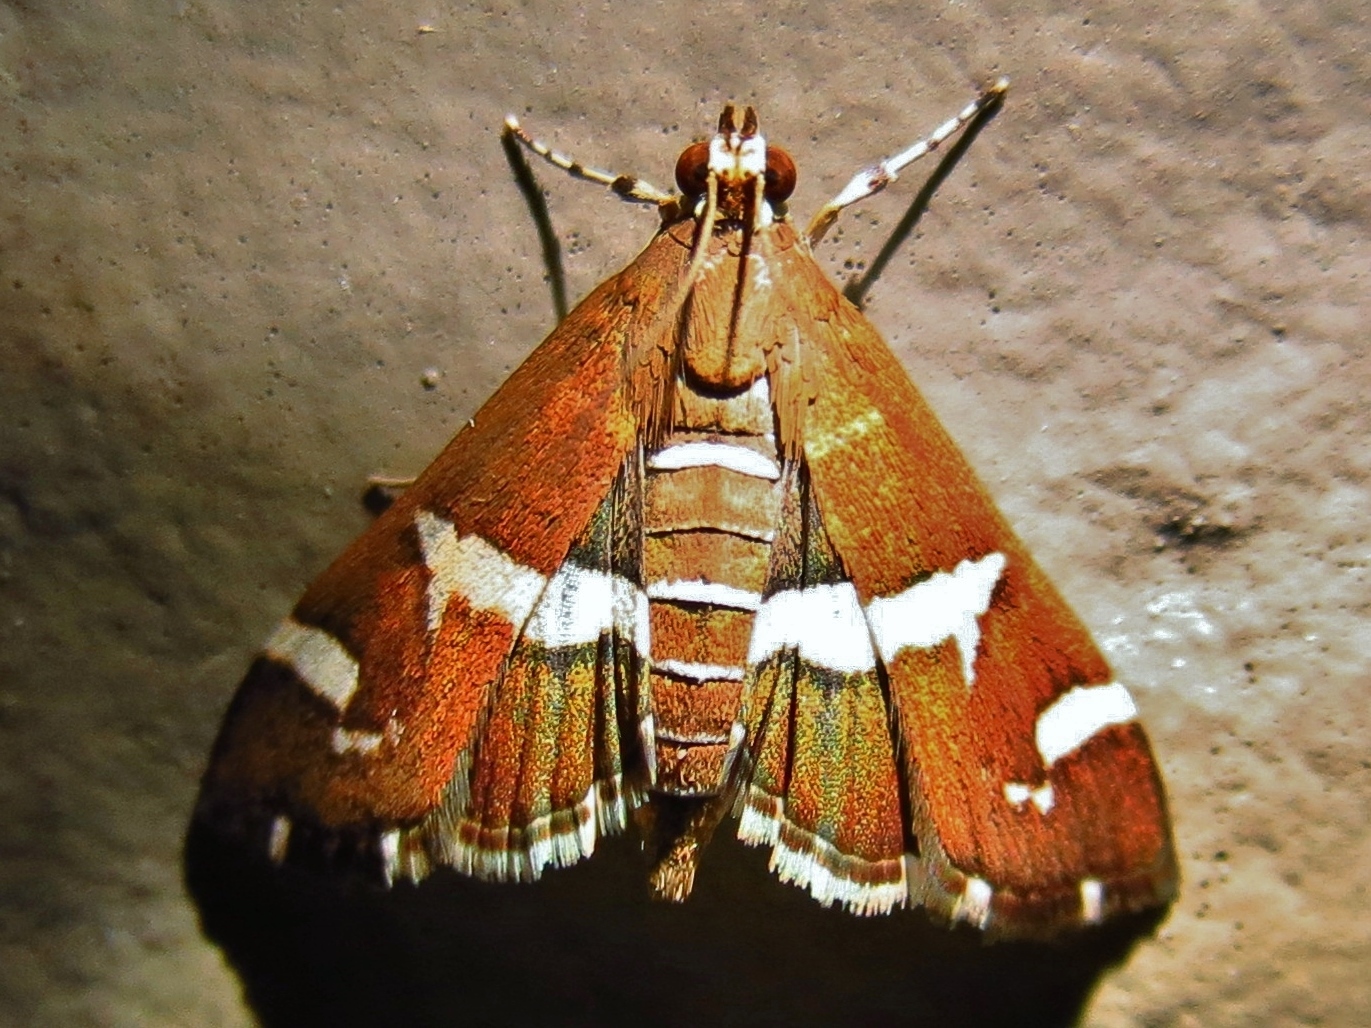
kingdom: Animalia
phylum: Arthropoda
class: Insecta
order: Lepidoptera
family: Crambidae
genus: Spoladea
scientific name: Spoladea recurvalis
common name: Beet webworm moth
